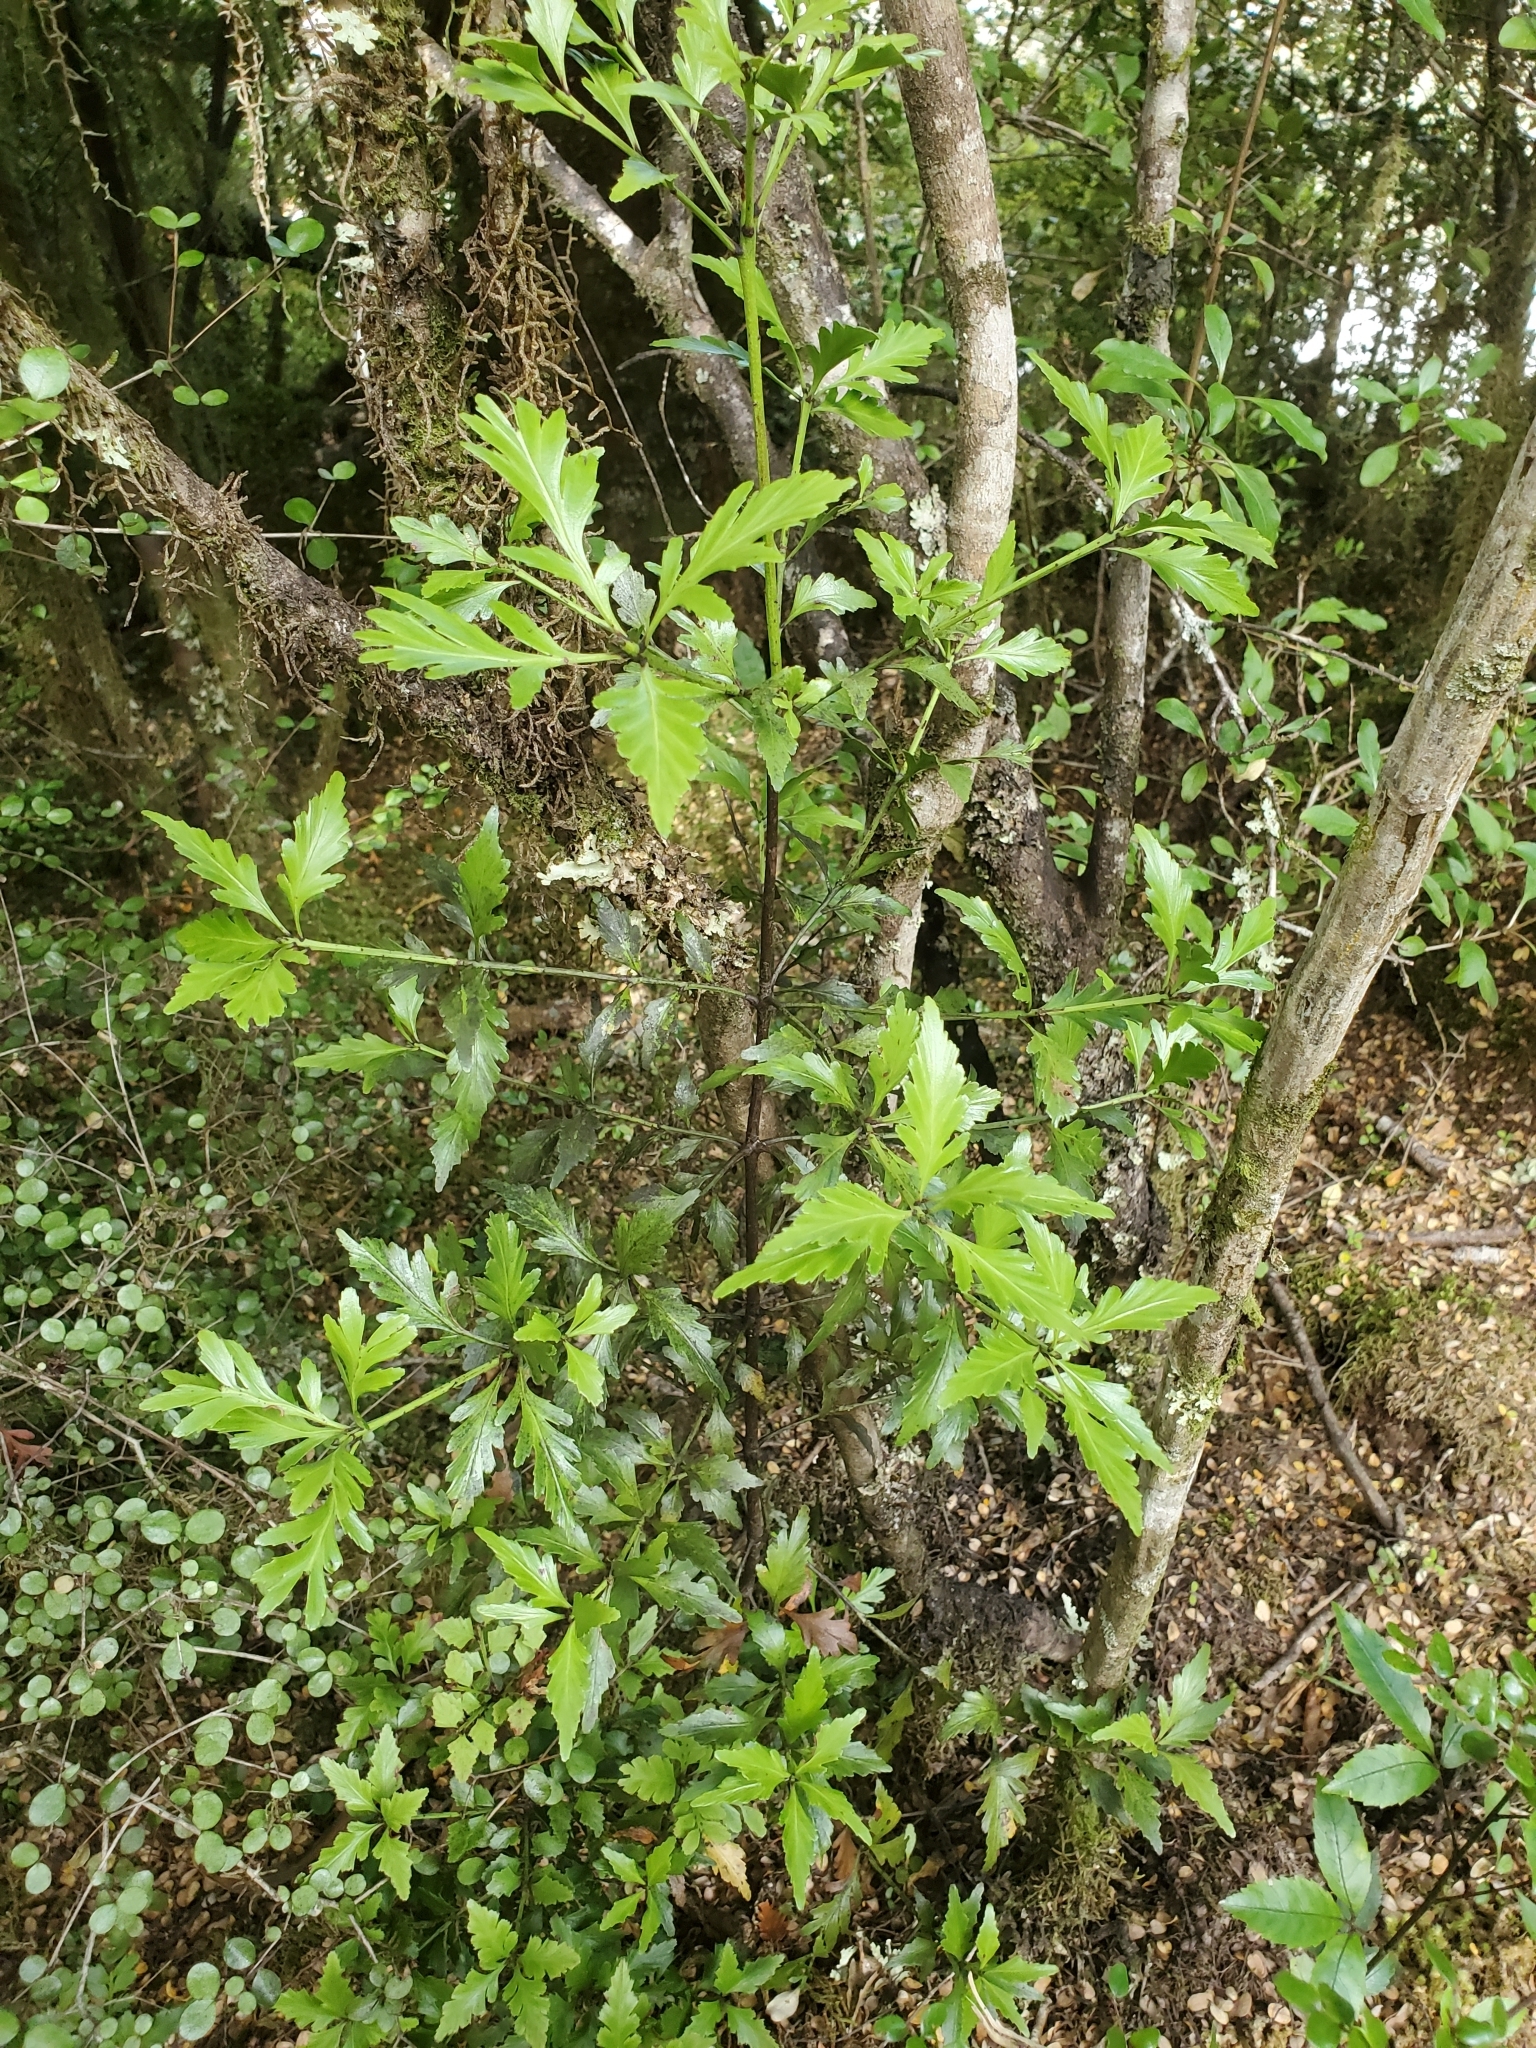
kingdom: Plantae
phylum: Tracheophyta
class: Pinopsida
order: Pinales
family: Phyllocladaceae
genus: Phyllocladus
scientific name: Phyllocladus trichomanoides
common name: Celery pine
